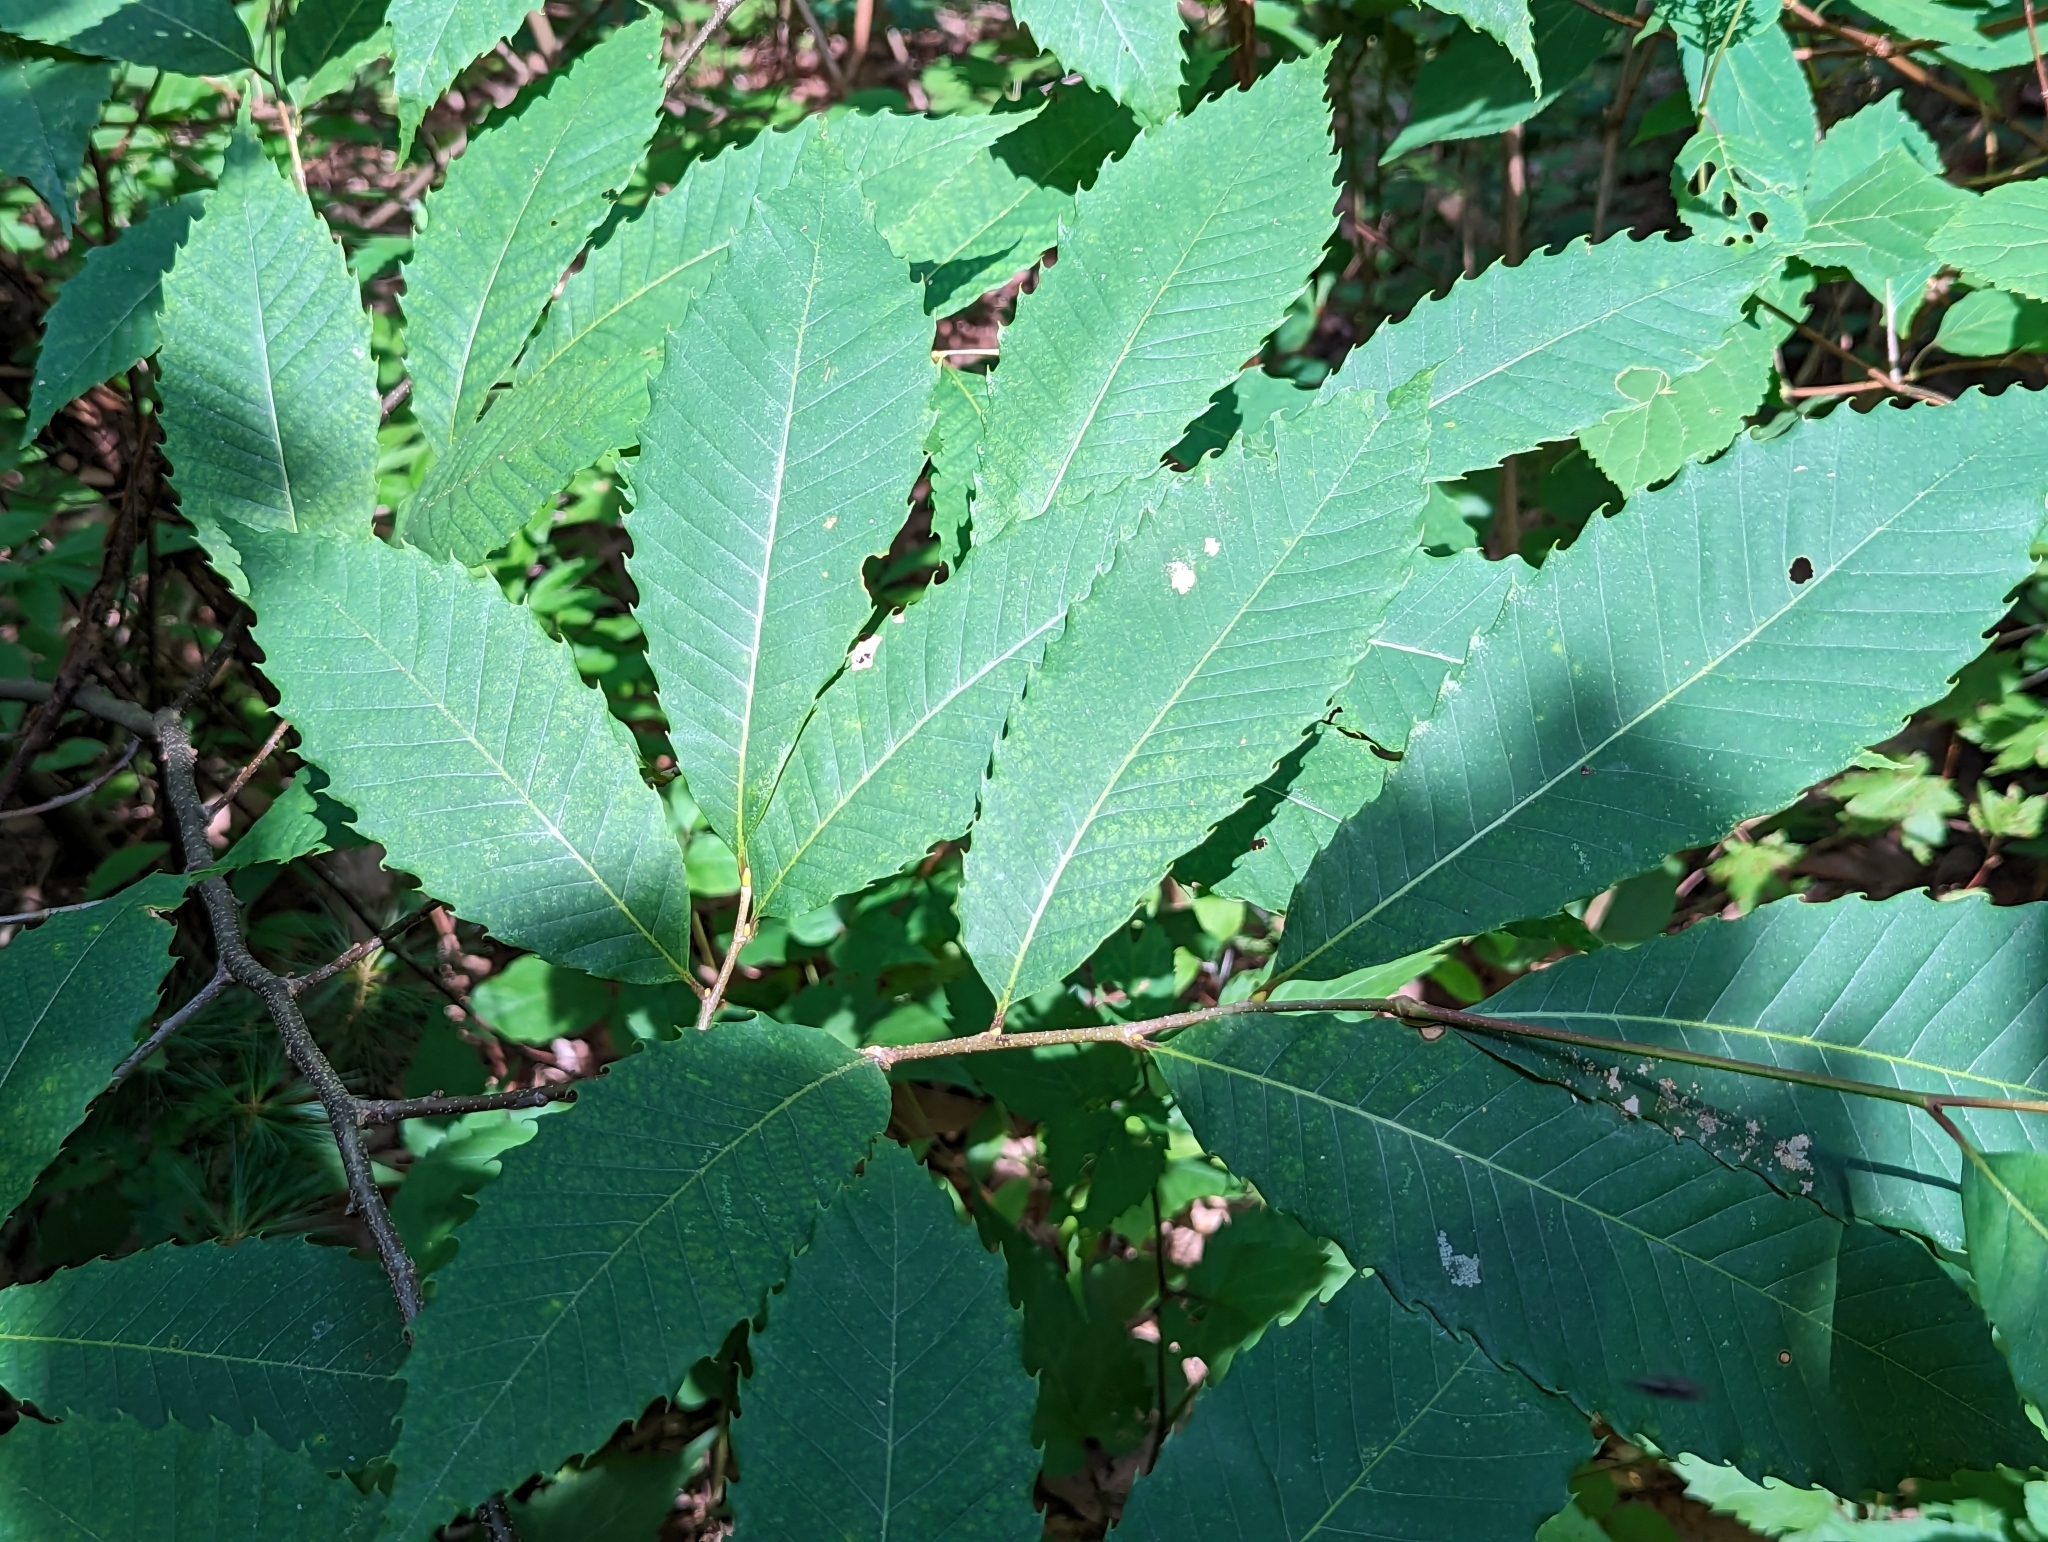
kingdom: Plantae
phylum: Tracheophyta
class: Magnoliopsida
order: Fagales
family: Fagaceae
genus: Castanea
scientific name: Castanea dentata
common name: American chestnut
